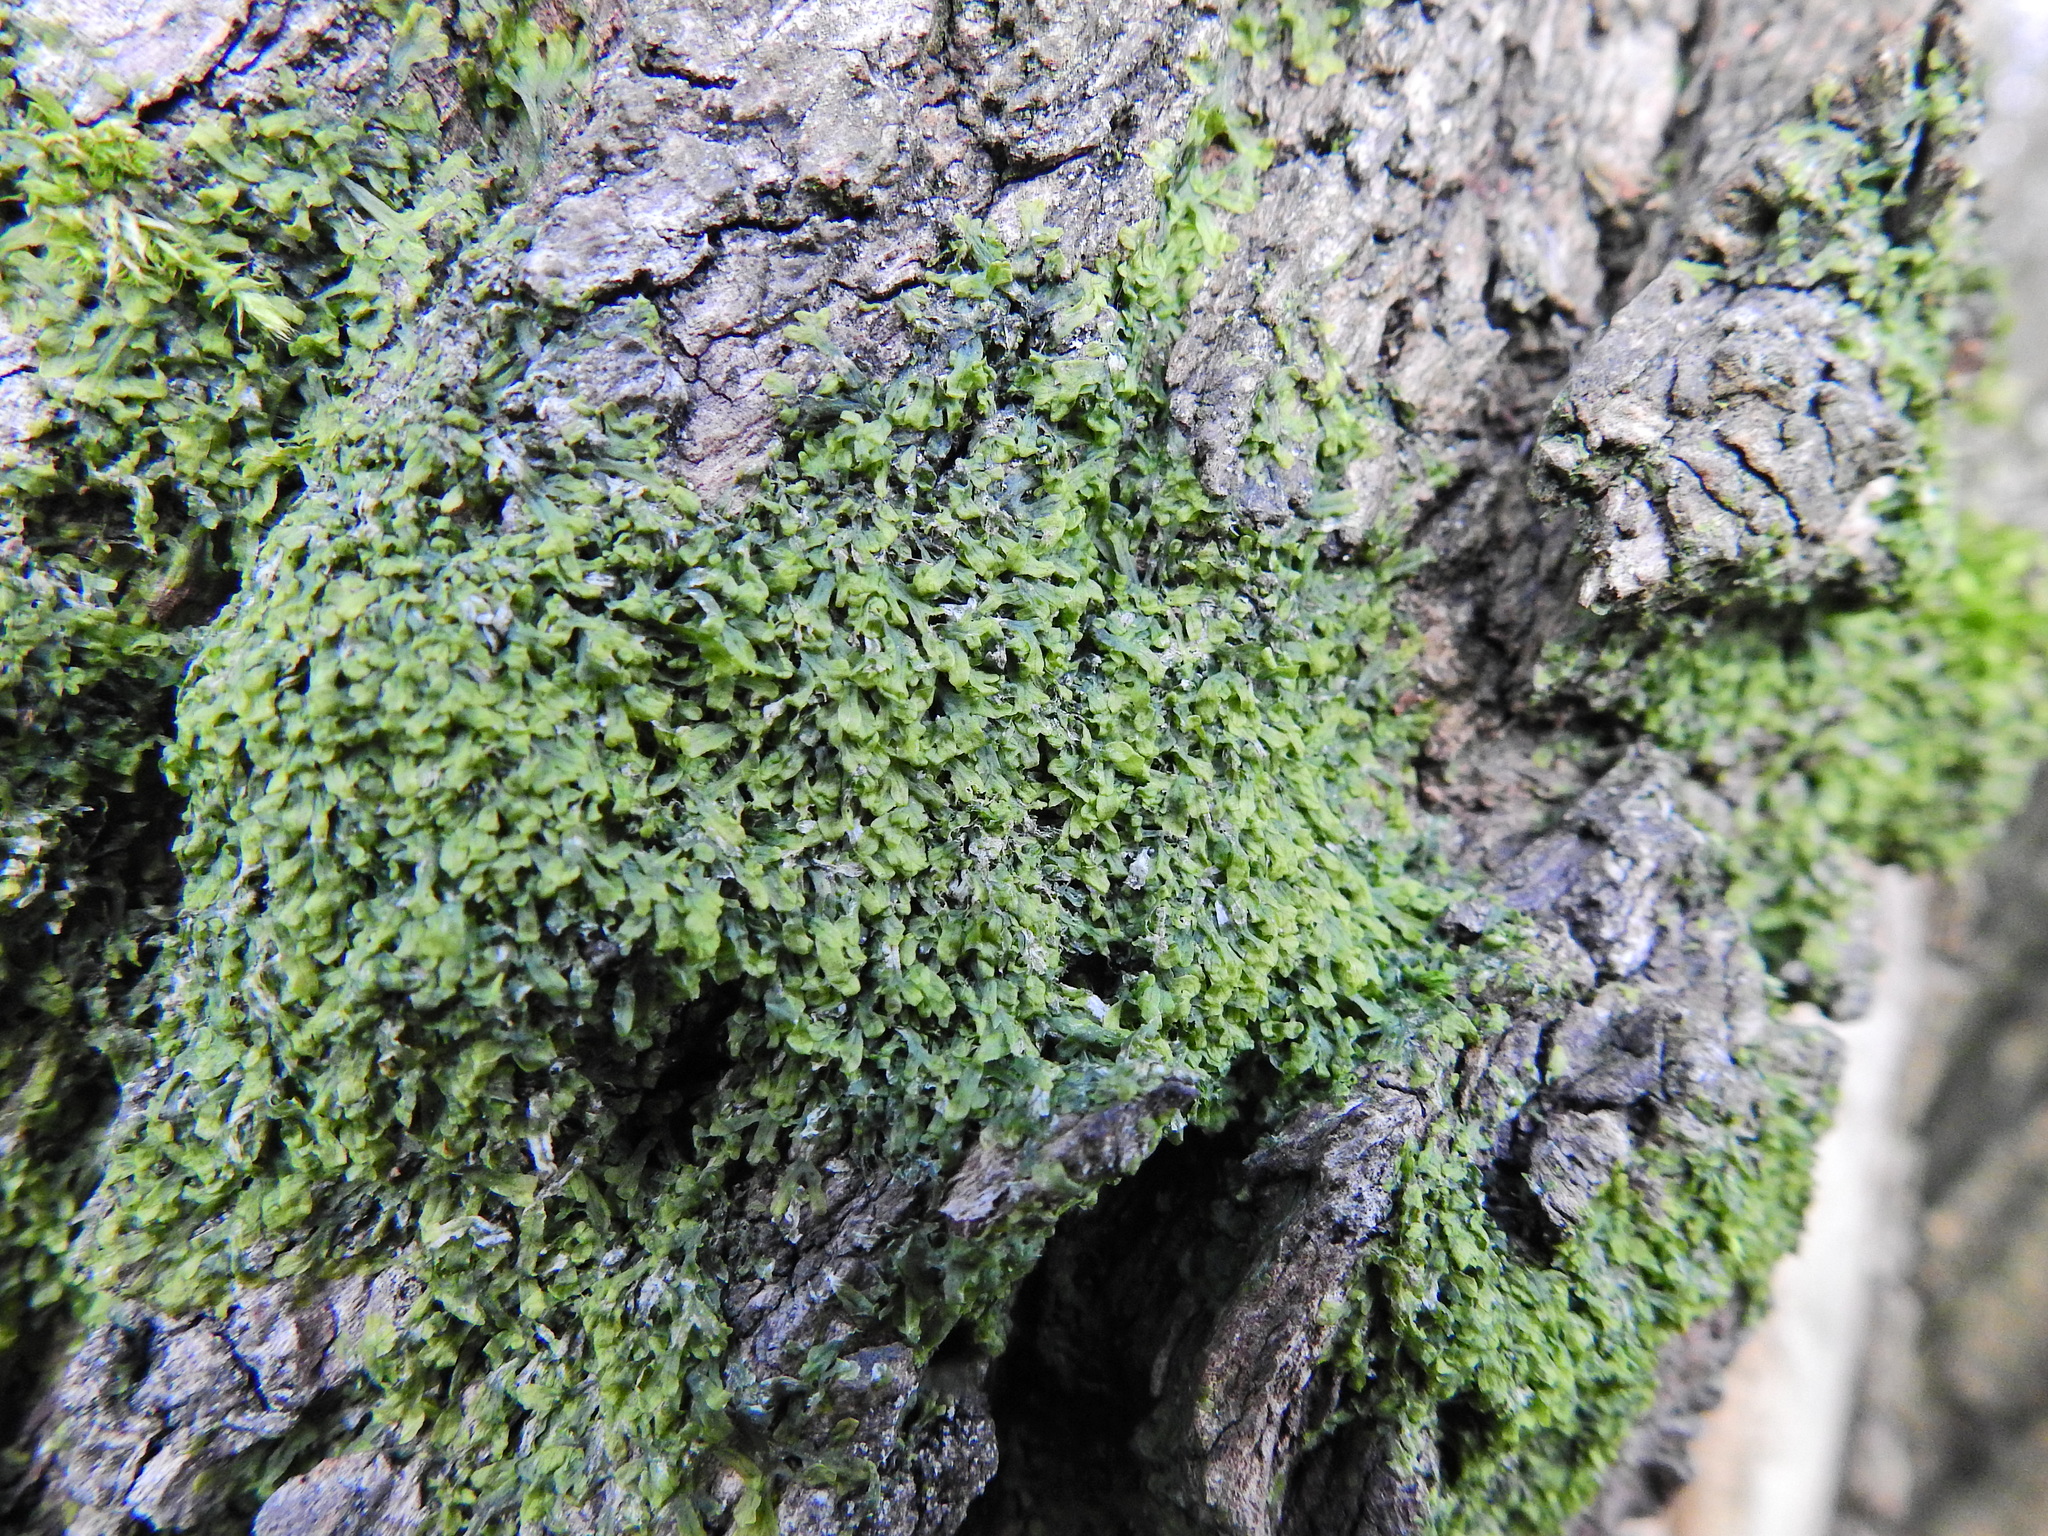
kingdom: Plantae
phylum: Marchantiophyta
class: Jungermanniopsida
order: Metzgeriales
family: Metzgeriaceae
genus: Metzgeria
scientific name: Metzgeria furcata
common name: Forked veilwort
